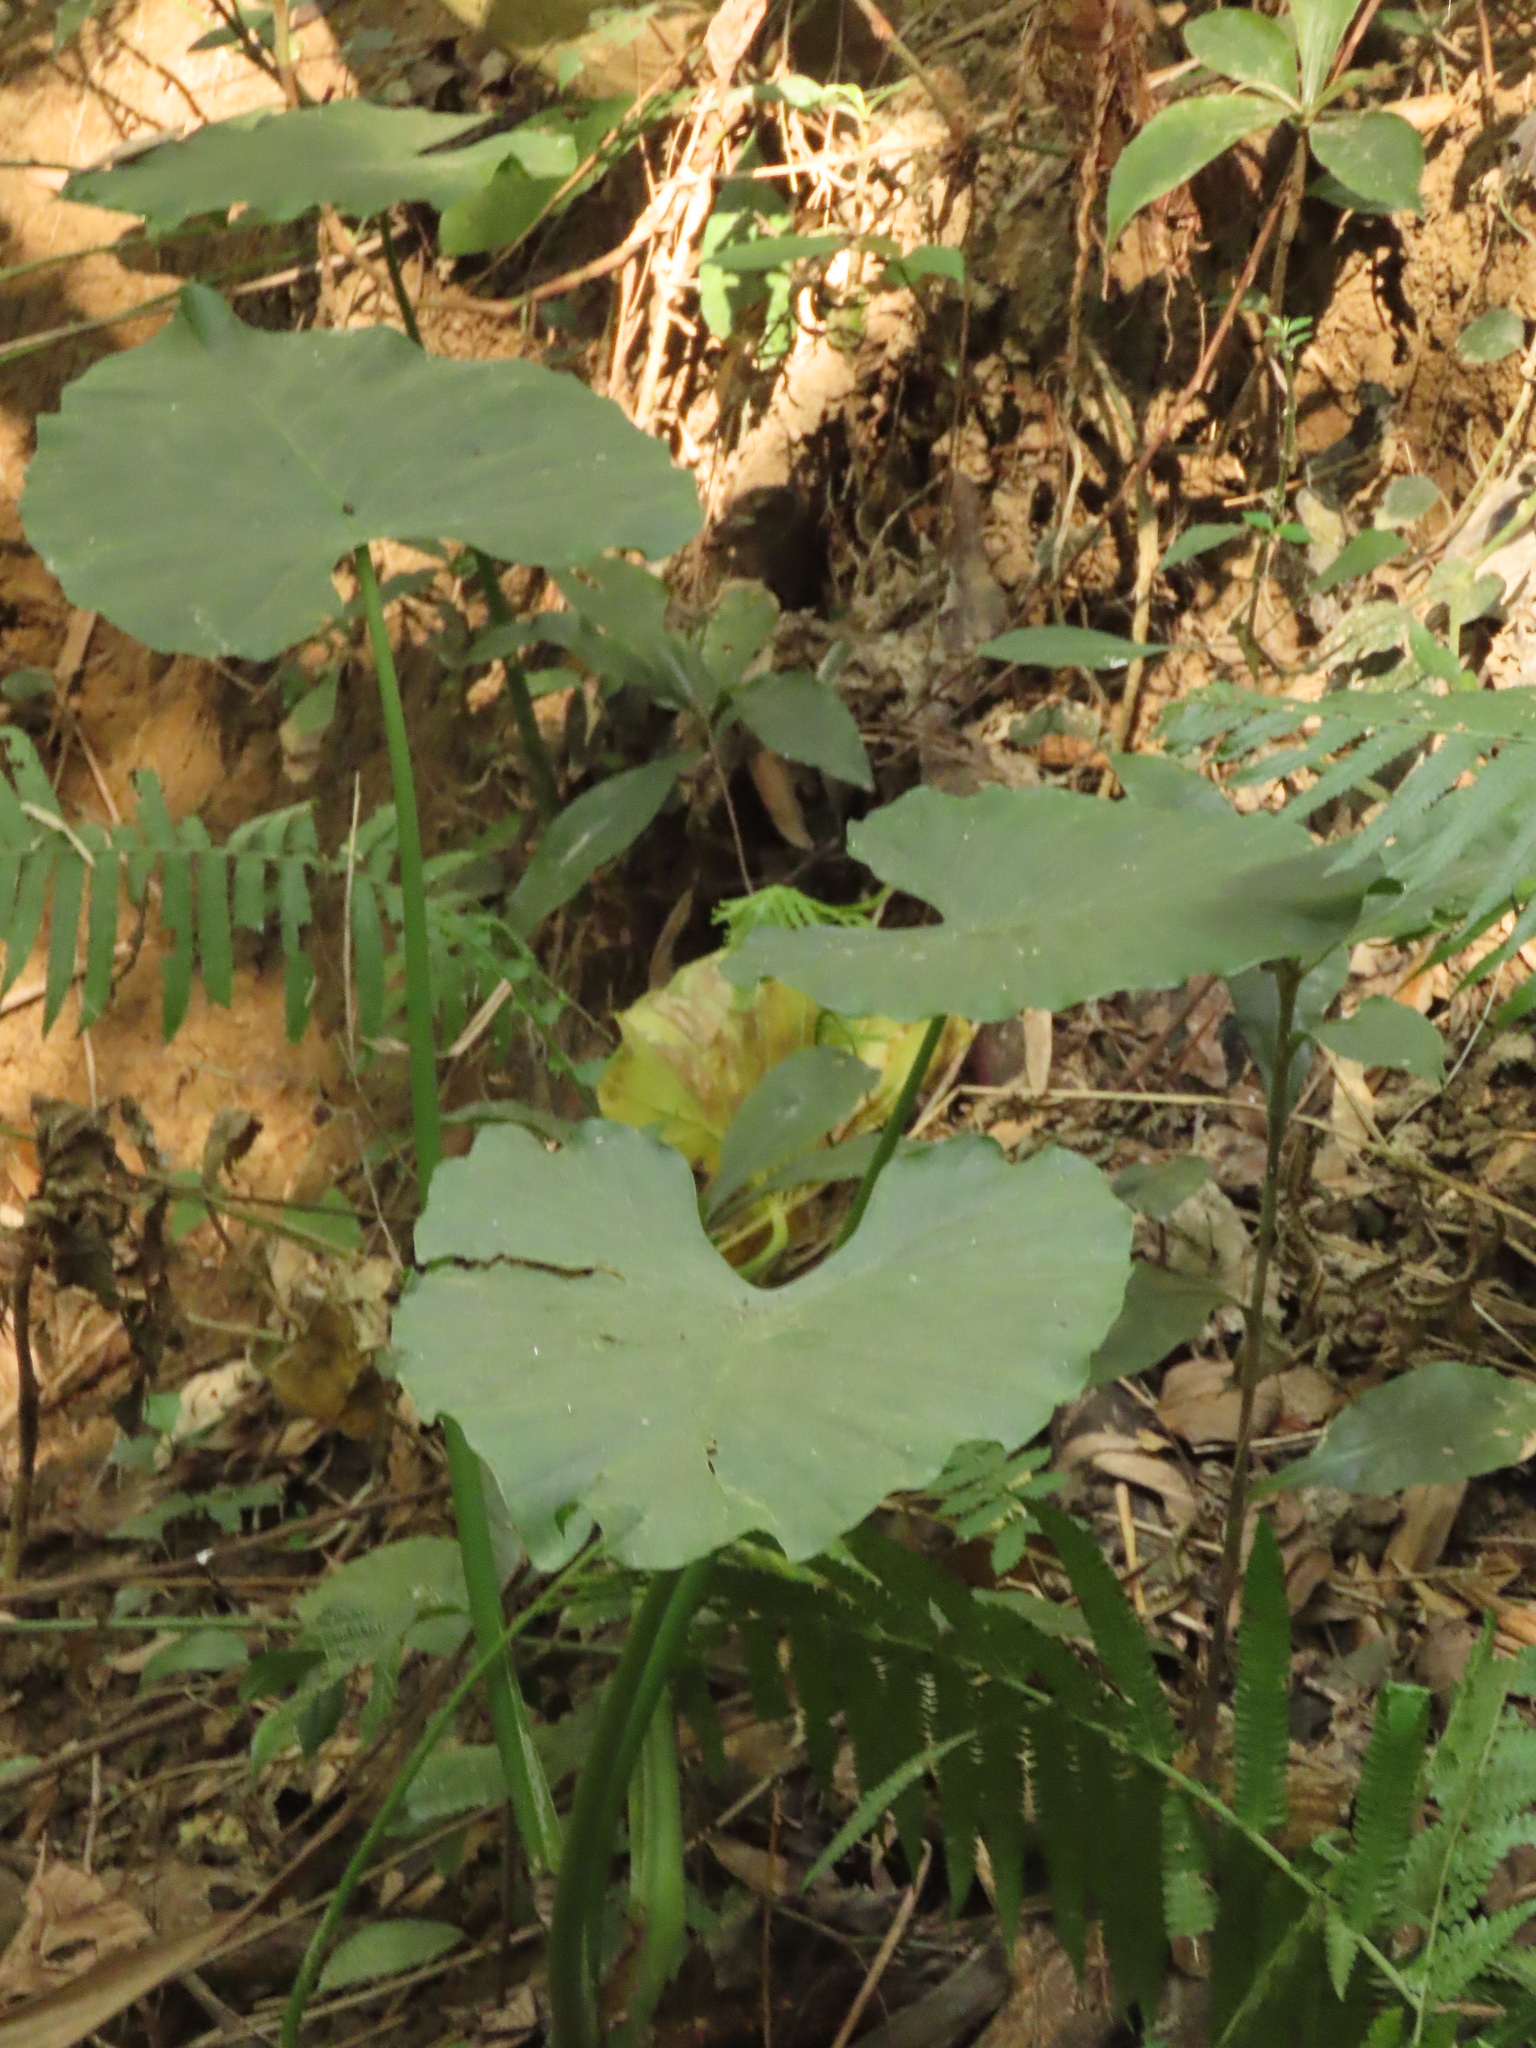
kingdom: Plantae
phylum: Tracheophyta
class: Liliopsida
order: Alismatales
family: Araceae
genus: Alocasia
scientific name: Alocasia odora
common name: Asian taro
